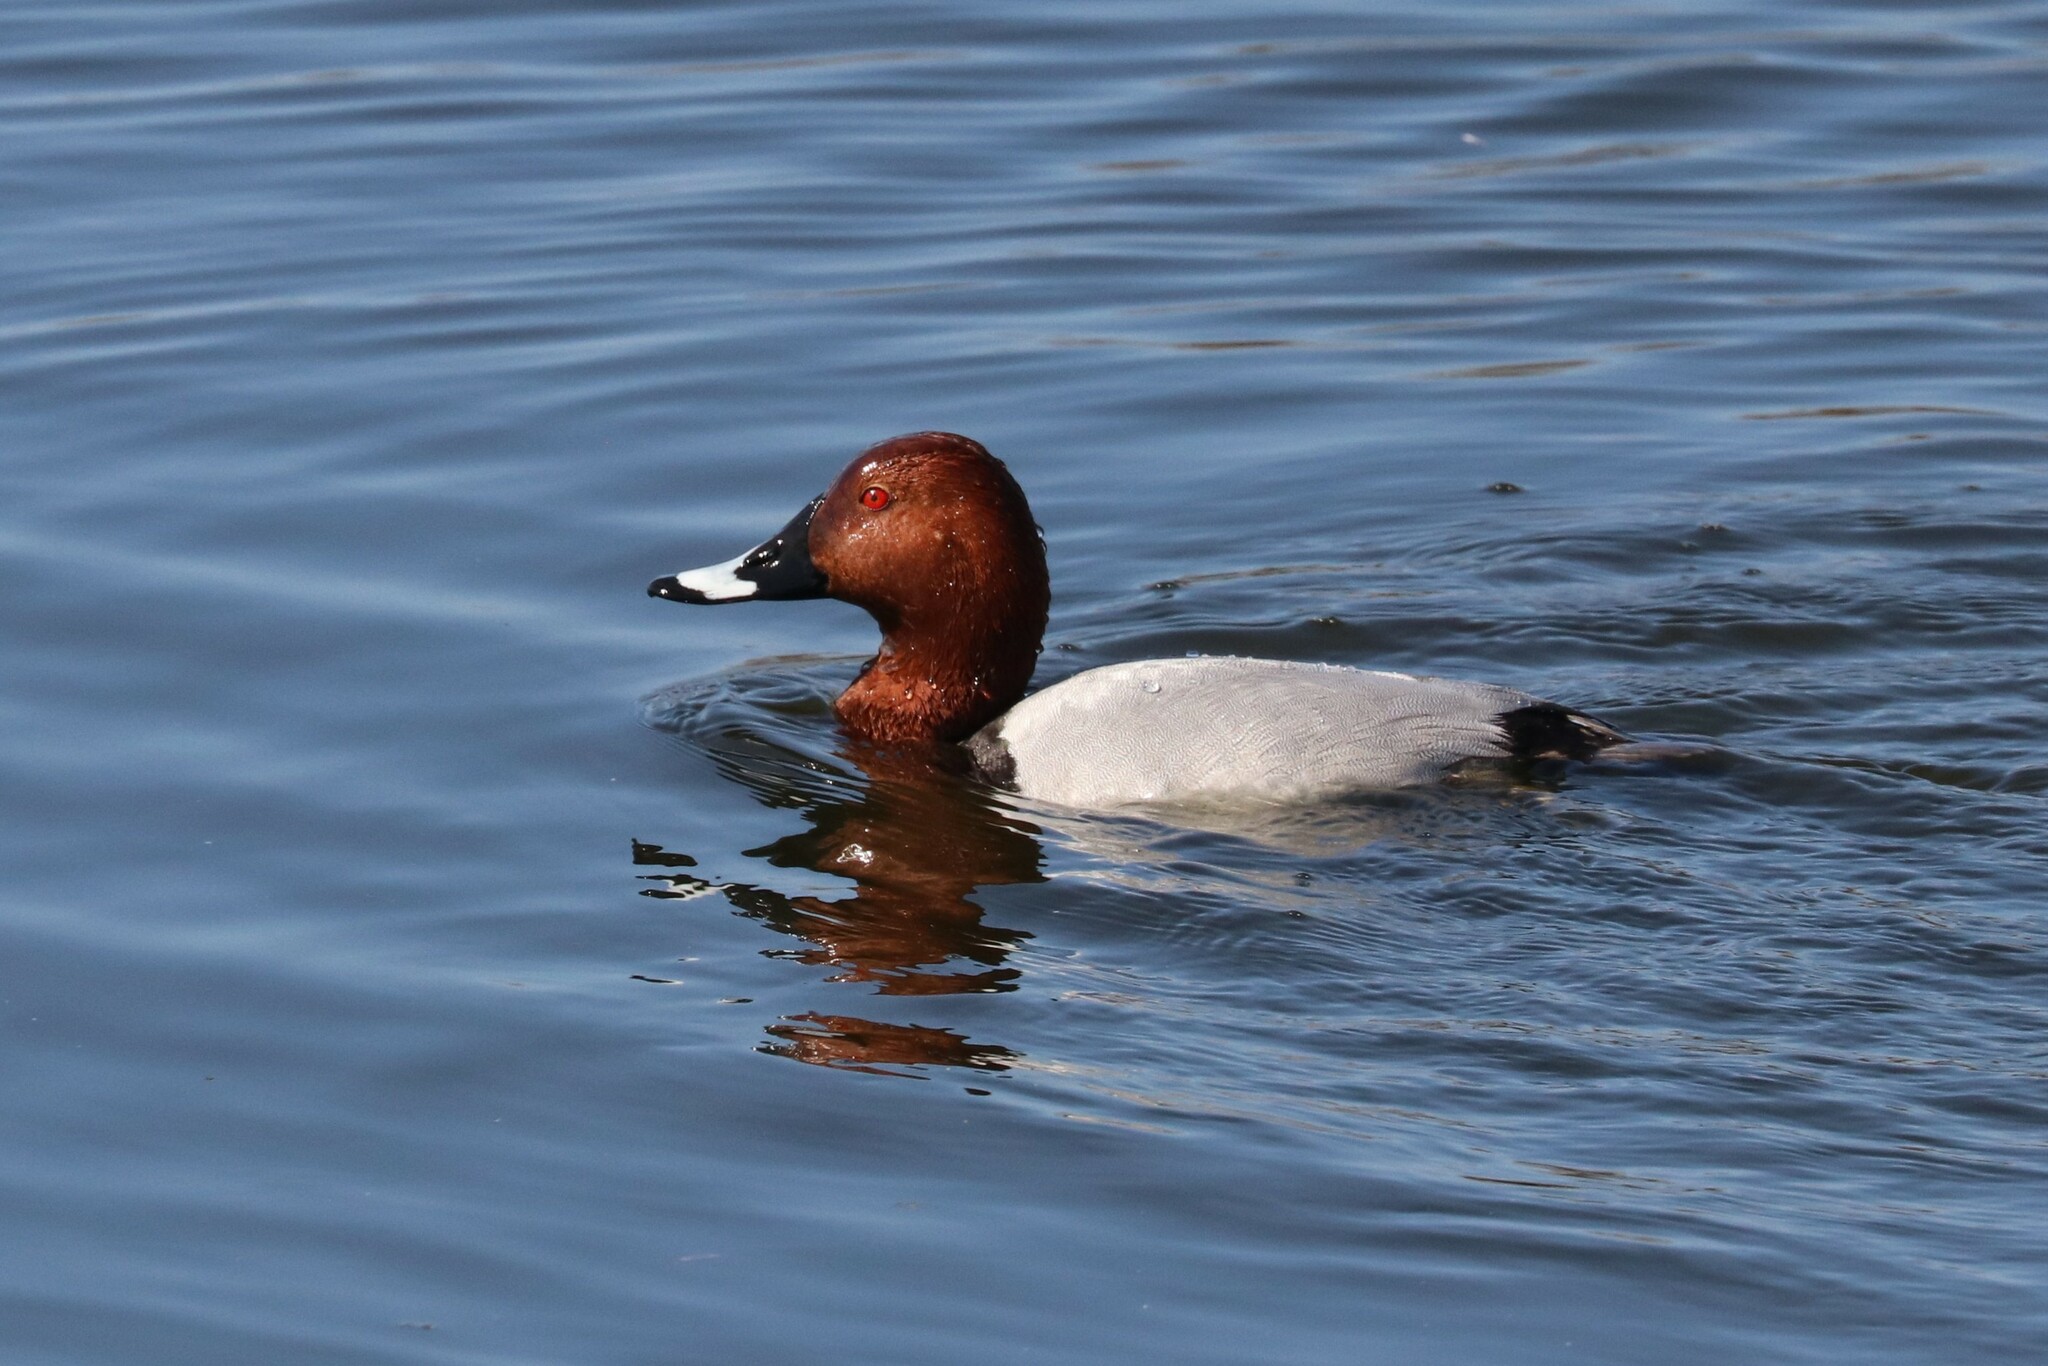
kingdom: Animalia
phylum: Chordata
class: Aves
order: Anseriformes
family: Anatidae
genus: Aythya
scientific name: Aythya ferina
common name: Common pochard
